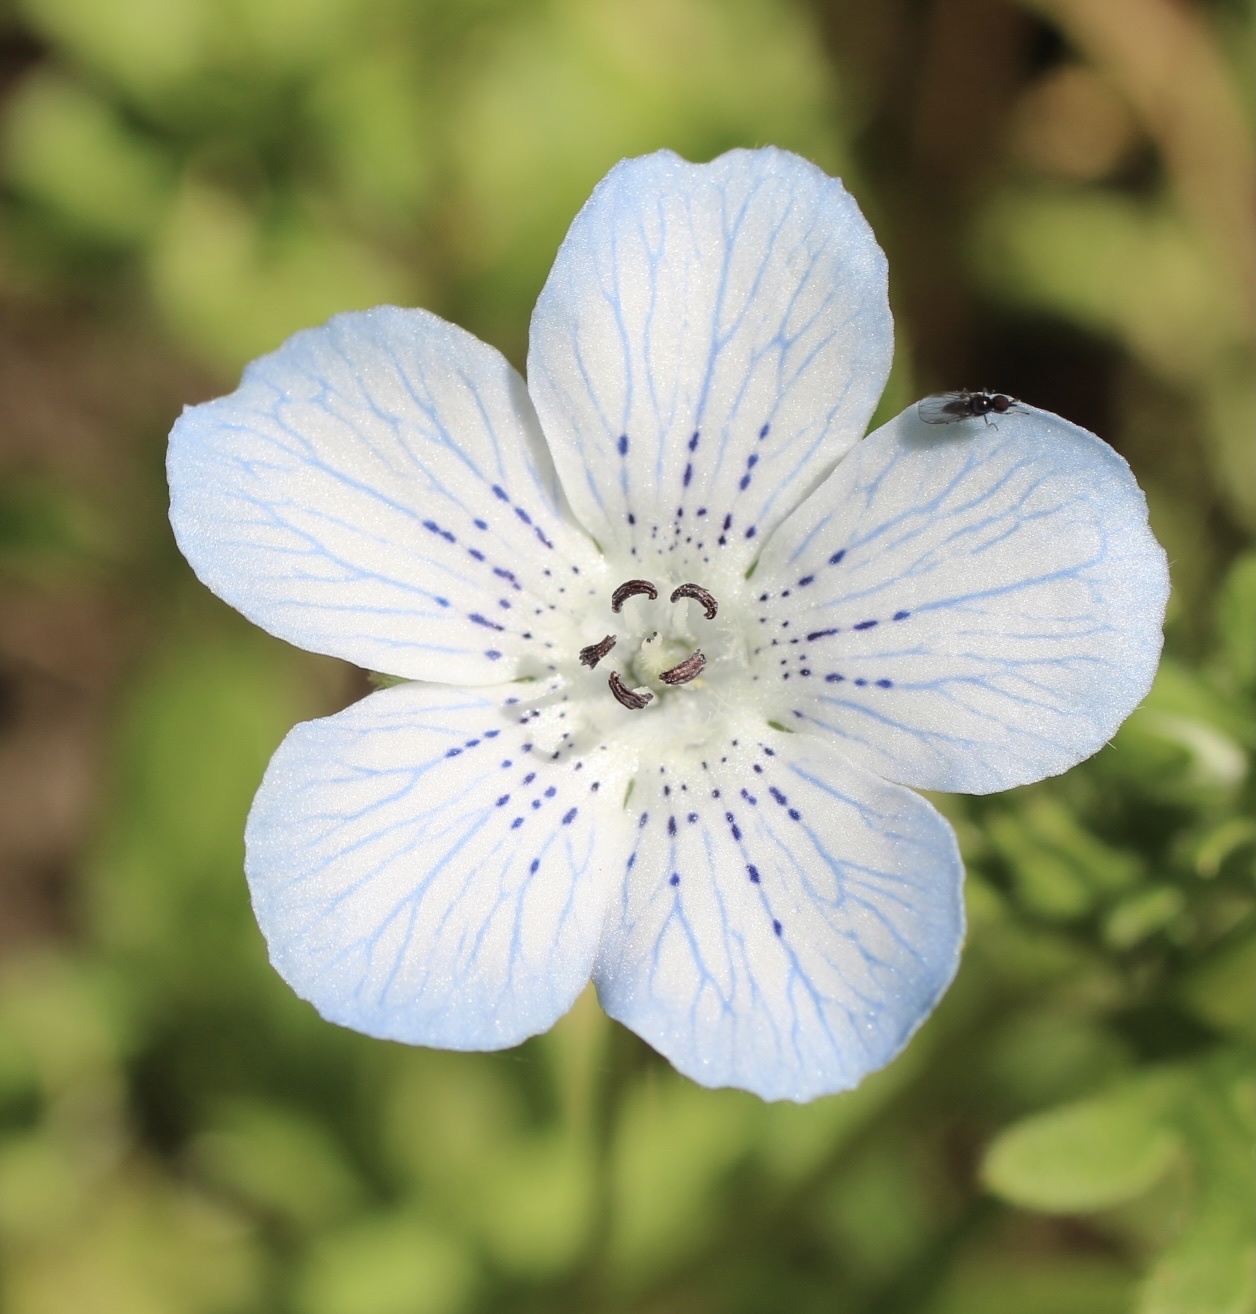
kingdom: Plantae
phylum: Tracheophyta
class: Magnoliopsida
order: Boraginales
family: Hydrophyllaceae
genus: Nemophila
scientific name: Nemophila menziesii
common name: Baby's-blue-eyes
